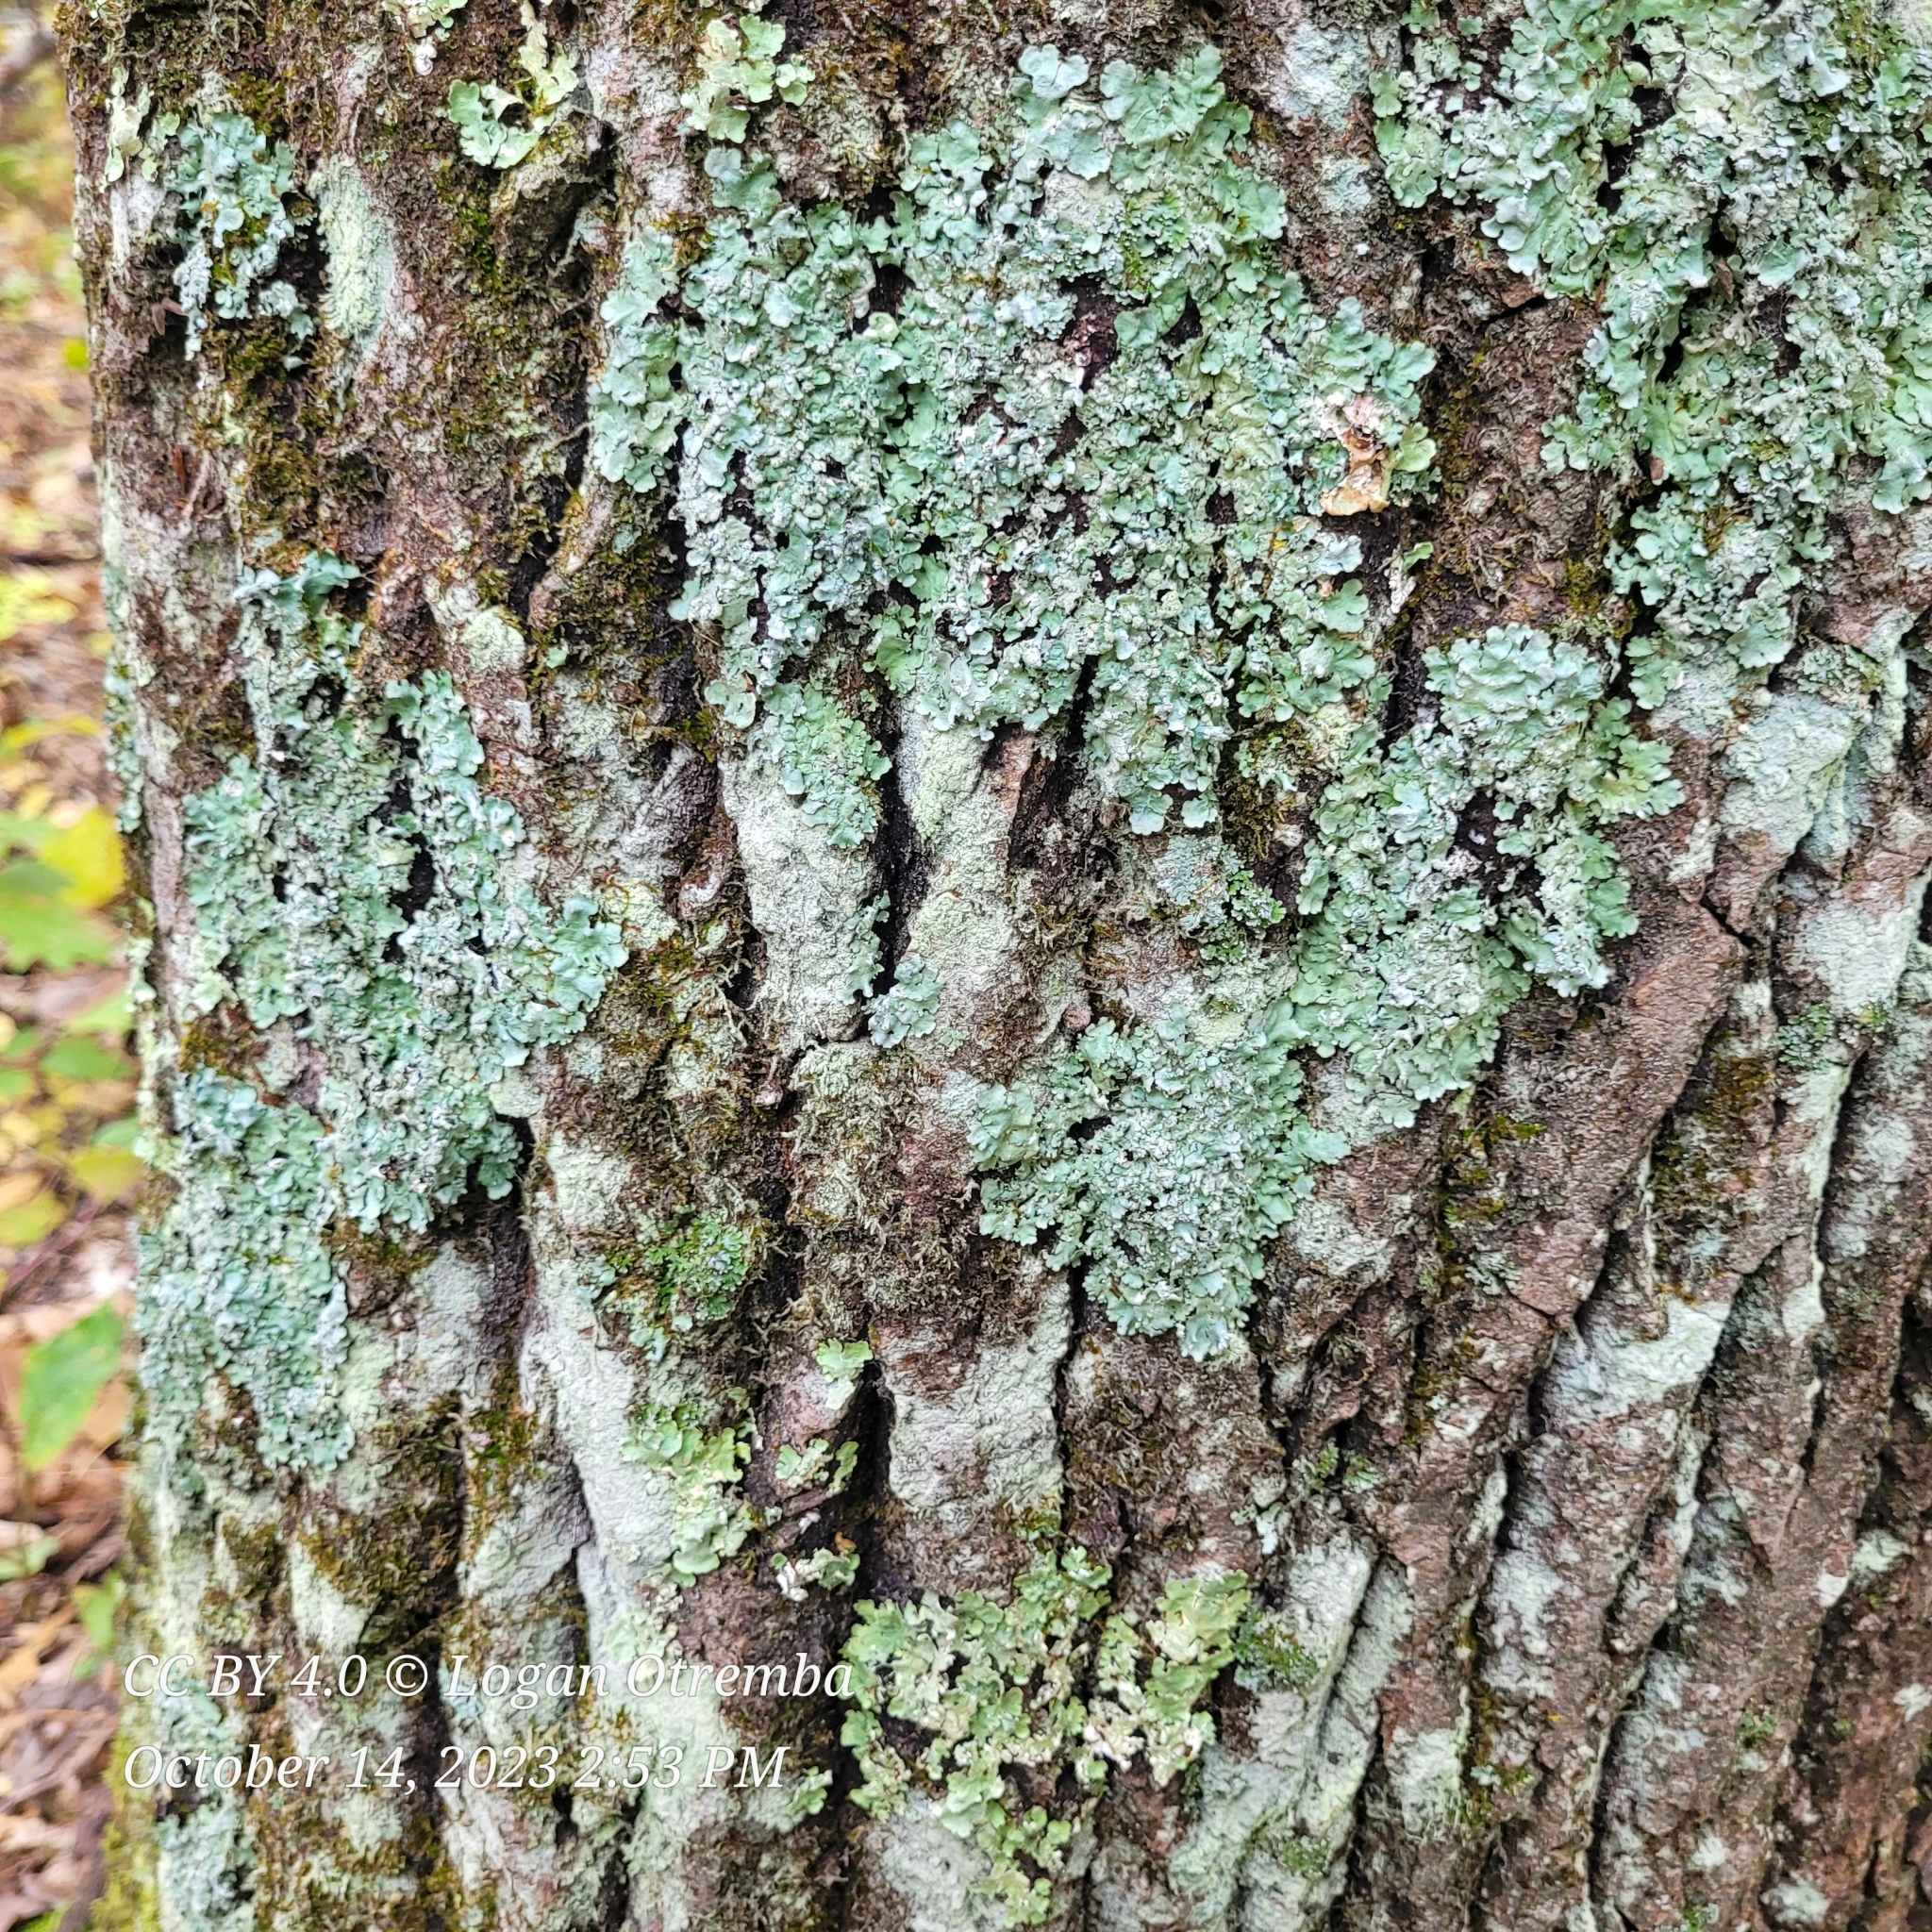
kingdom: Fungi
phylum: Ascomycota
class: Lecanoromycetes
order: Lecanorales
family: Parmeliaceae
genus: Myelochroa
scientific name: Myelochroa aurulenta
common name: Powdery axil-bristle lichen
